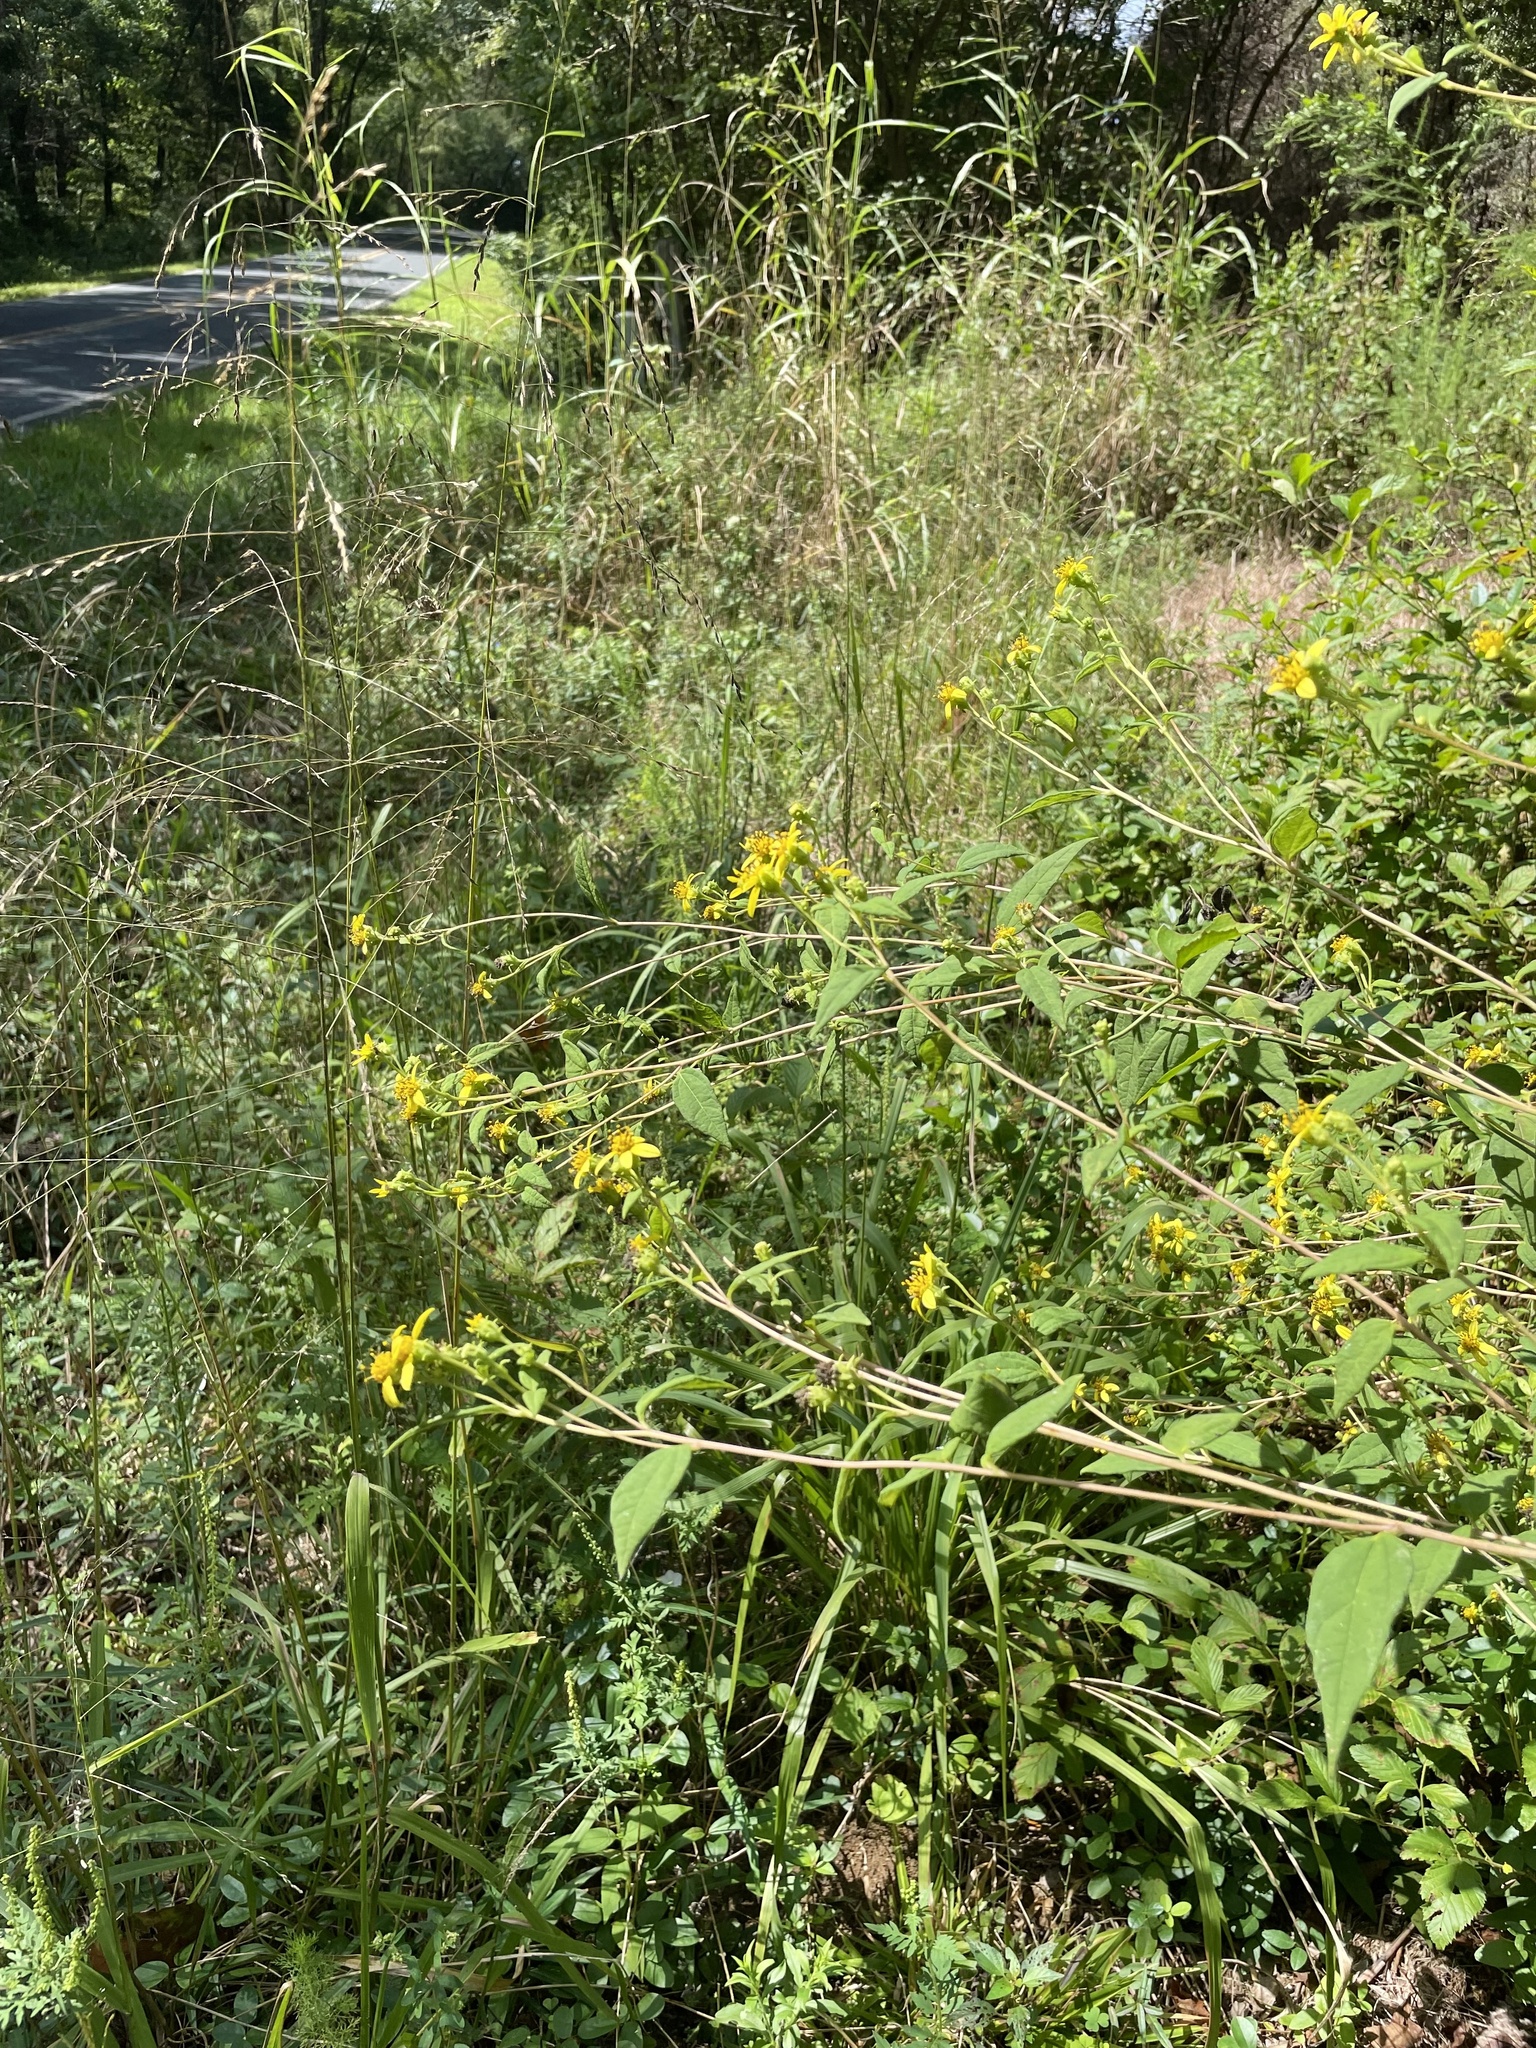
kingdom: Plantae
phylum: Tracheophyta
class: Magnoliopsida
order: Asterales
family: Asteraceae
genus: Helianthus
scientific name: Helianthus microcephalus
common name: Woodland sunflower
